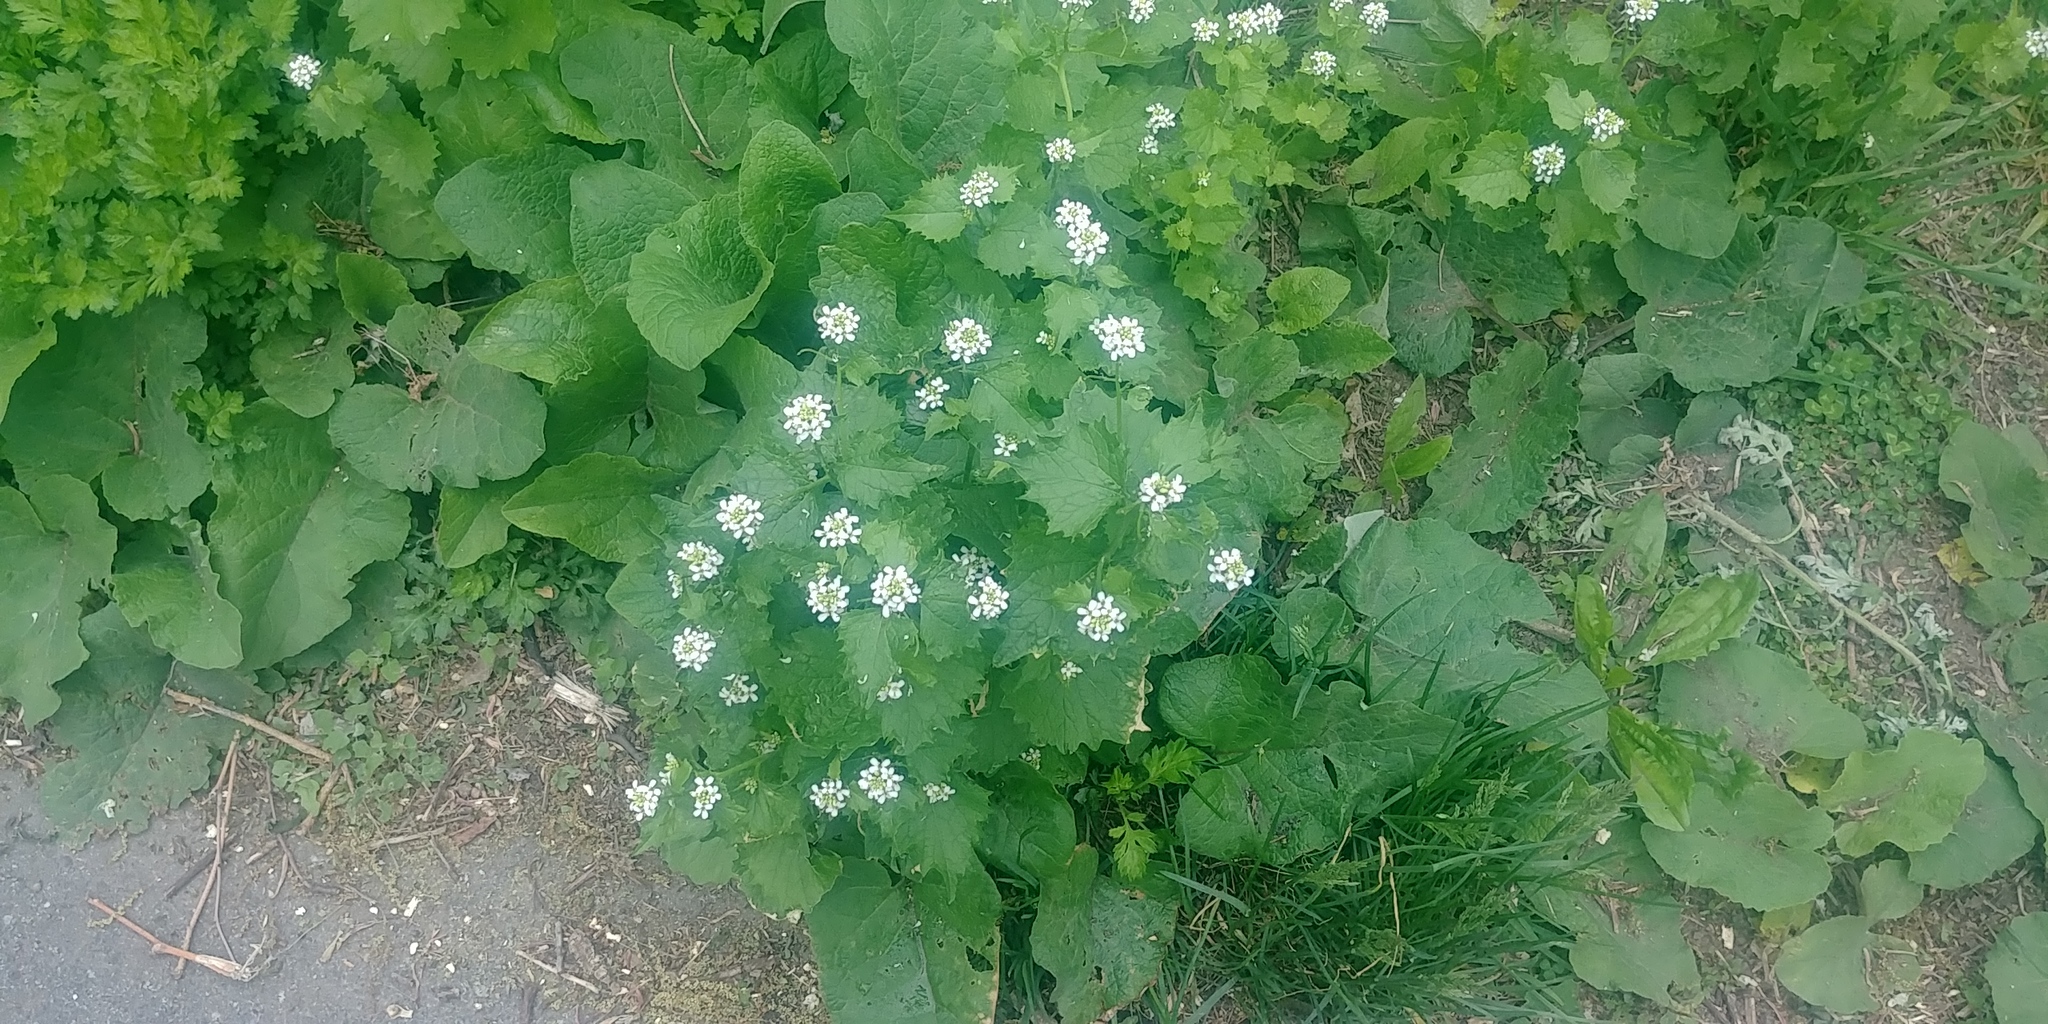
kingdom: Plantae
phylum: Tracheophyta
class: Magnoliopsida
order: Brassicales
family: Brassicaceae
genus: Alliaria
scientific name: Alliaria petiolata
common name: Garlic mustard
